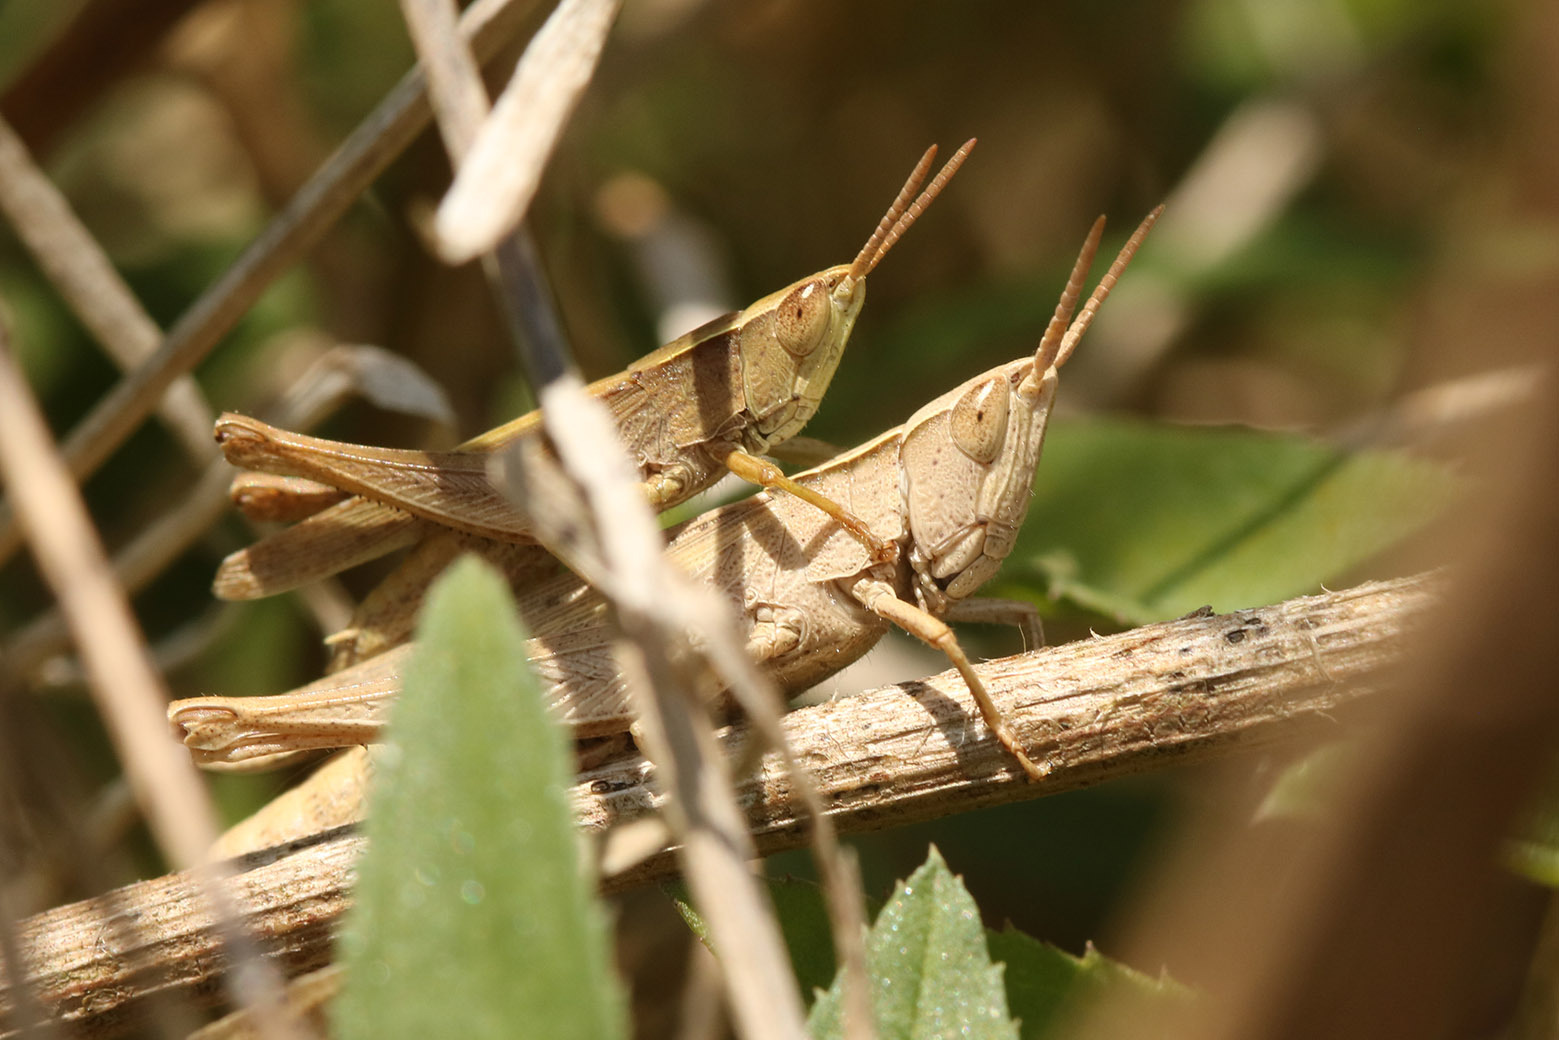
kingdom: Animalia
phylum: Arthropoda
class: Insecta
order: Orthoptera
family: Acrididae
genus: Laplatacris
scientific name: Laplatacris dispar
